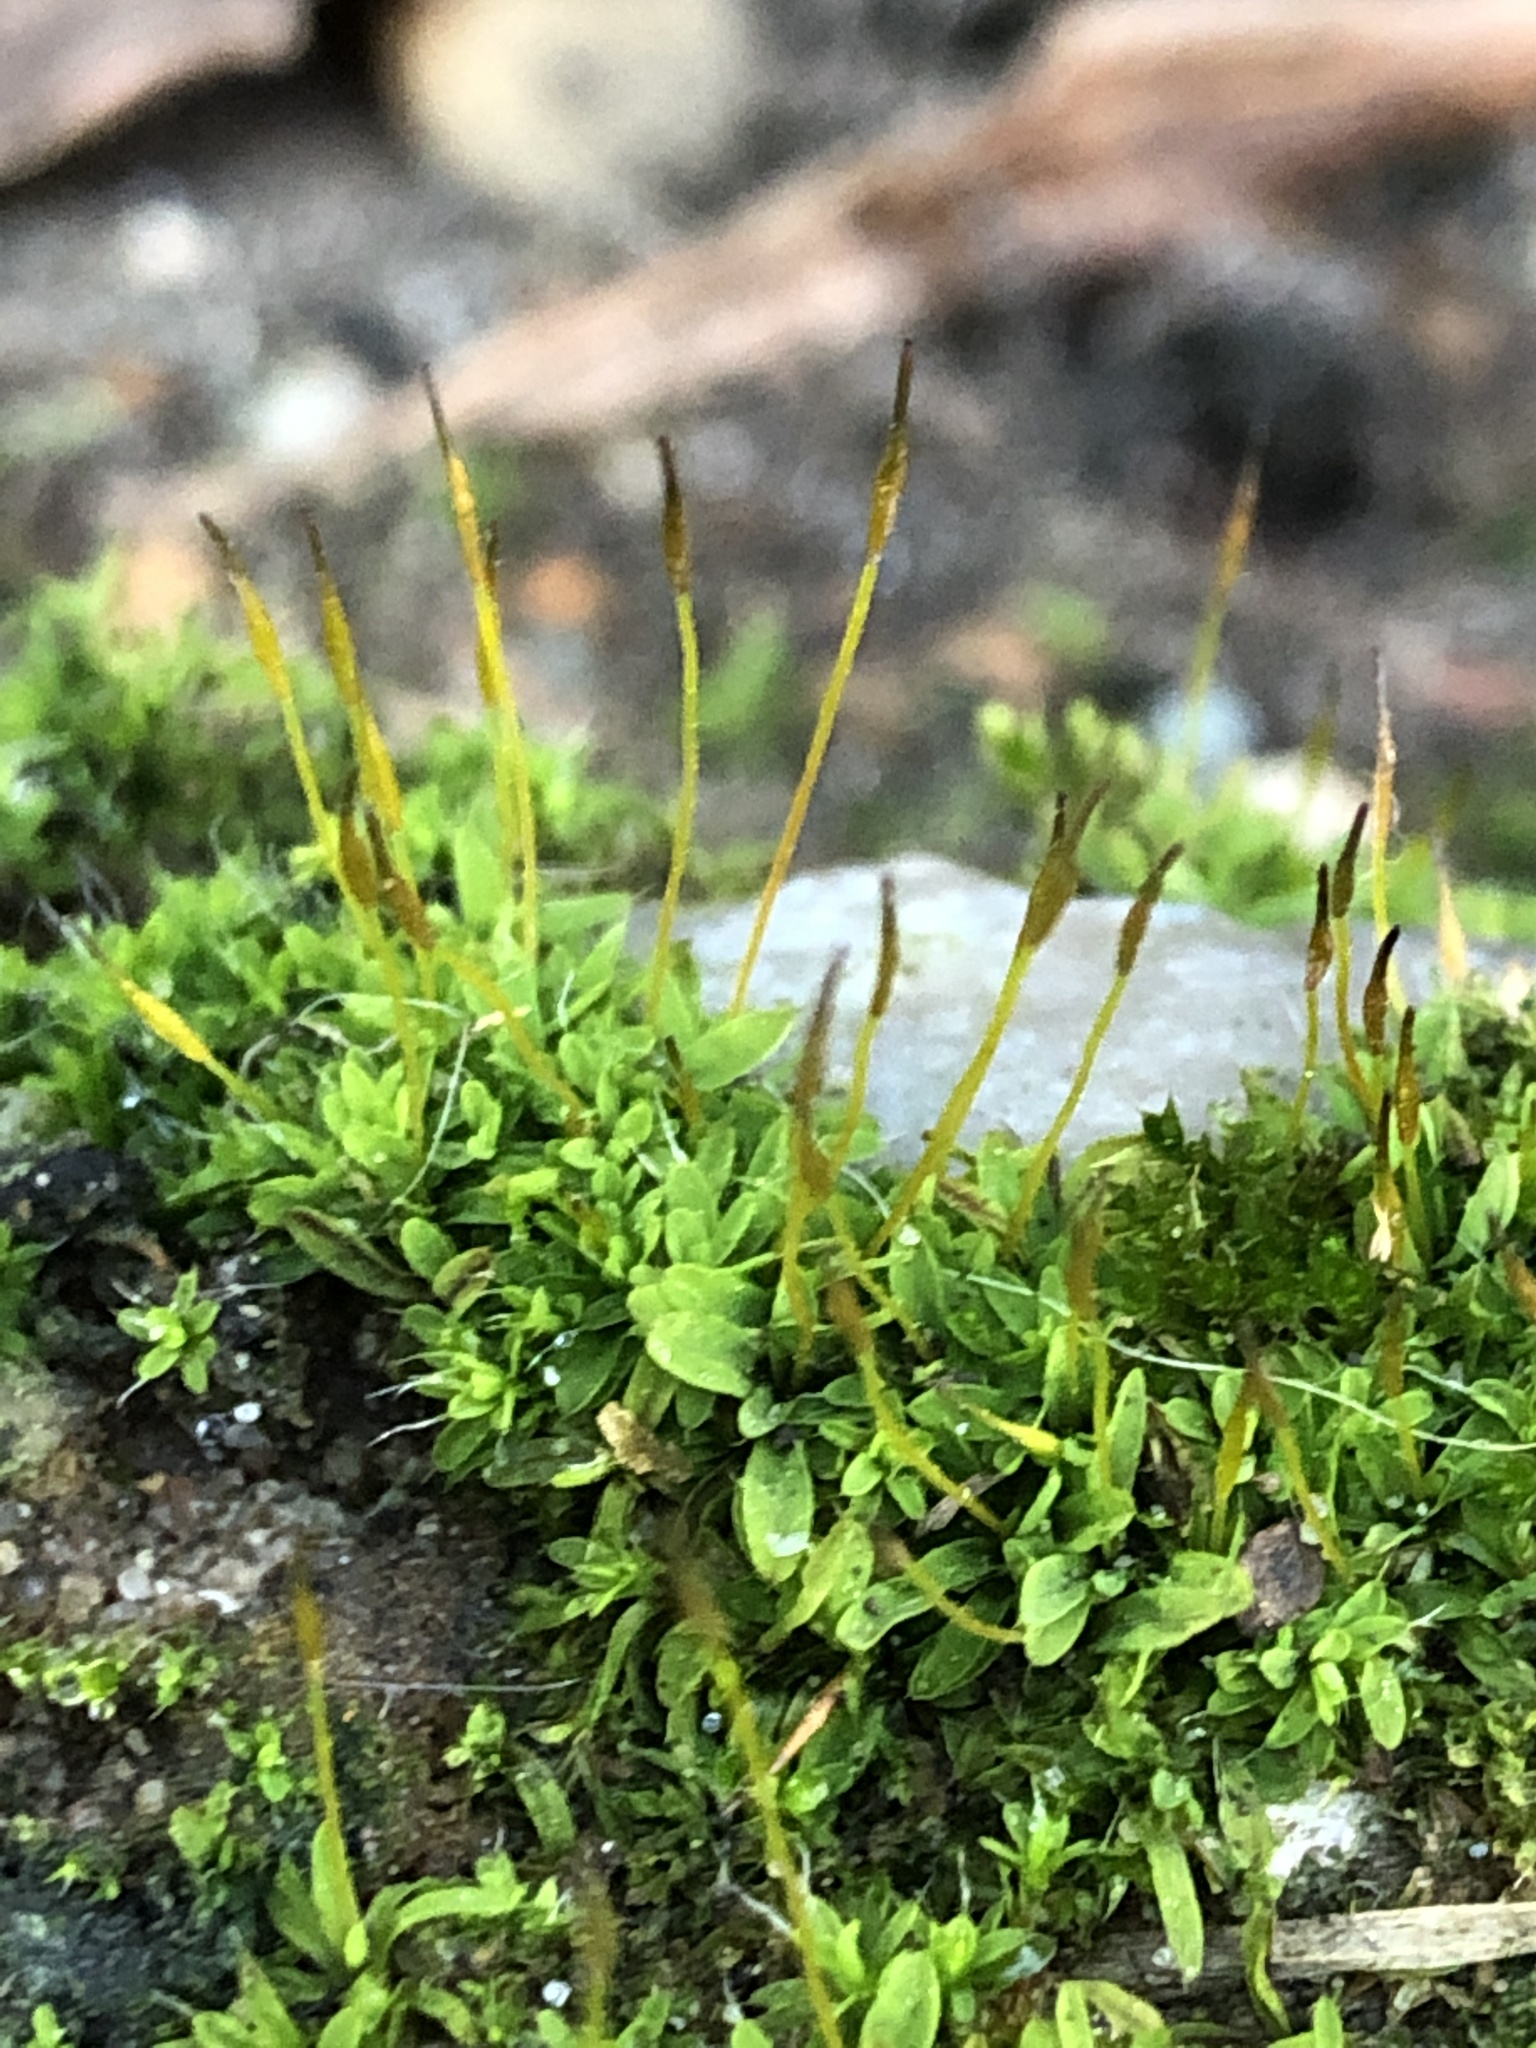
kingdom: Plantae
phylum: Bryophyta
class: Bryopsida
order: Pottiales
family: Pottiaceae
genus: Tortula
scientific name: Tortula muralis
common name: Wall screw-moss
